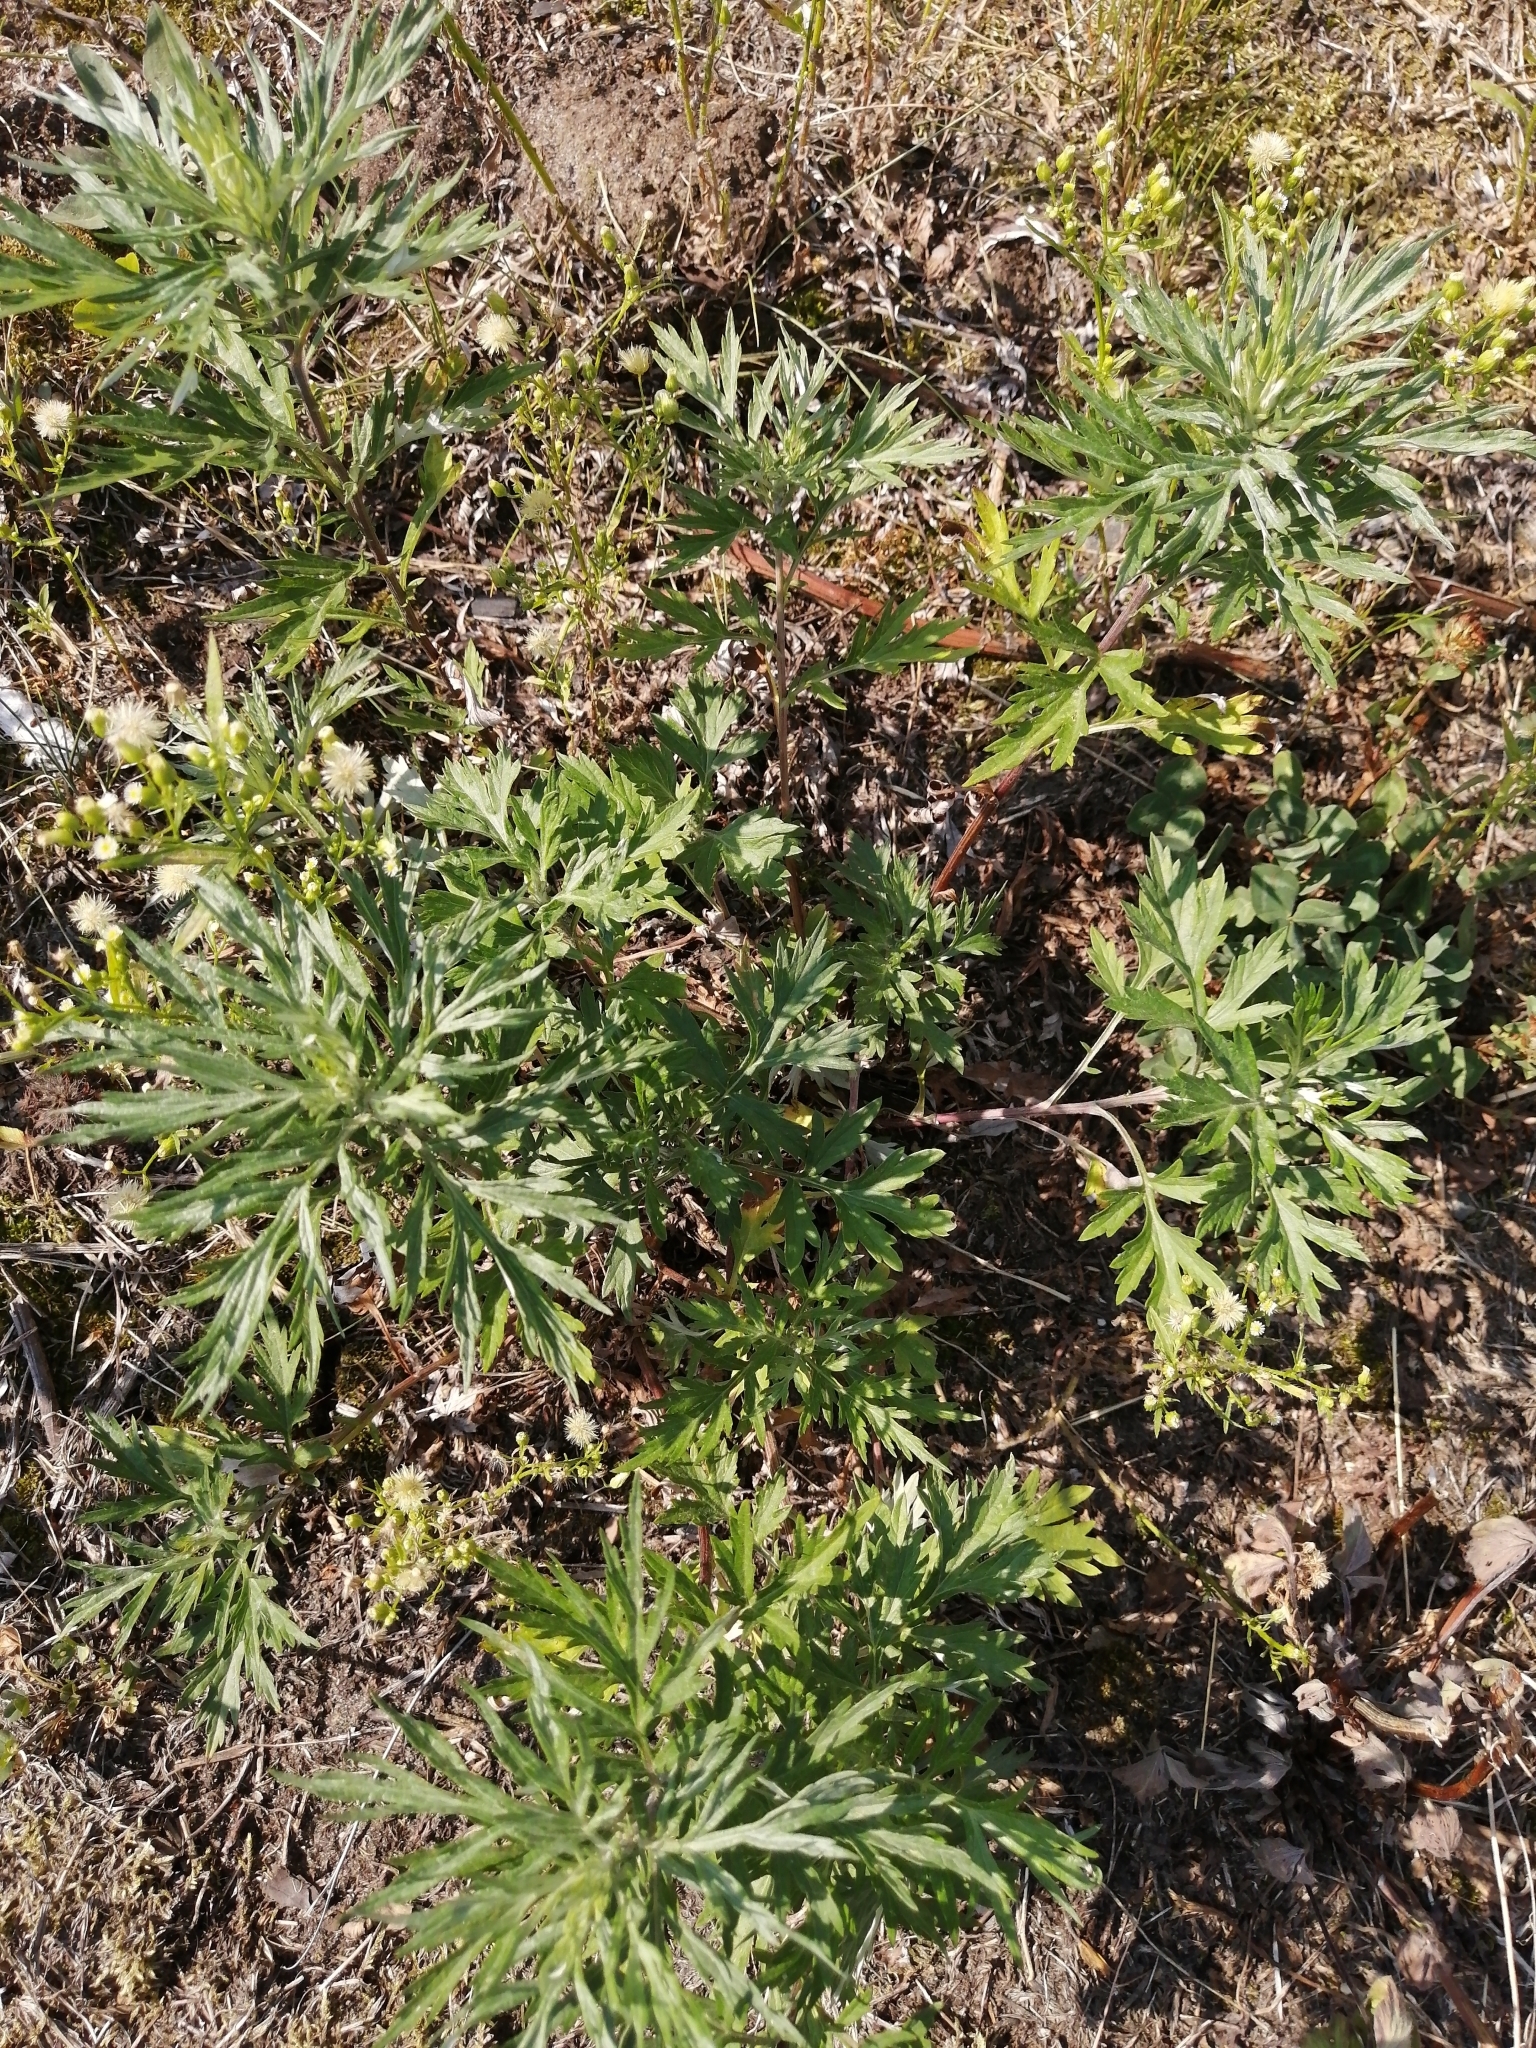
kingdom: Plantae
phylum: Tracheophyta
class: Magnoliopsida
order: Asterales
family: Asteraceae
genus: Artemisia
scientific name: Artemisia vulgaris
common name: Mugwort
